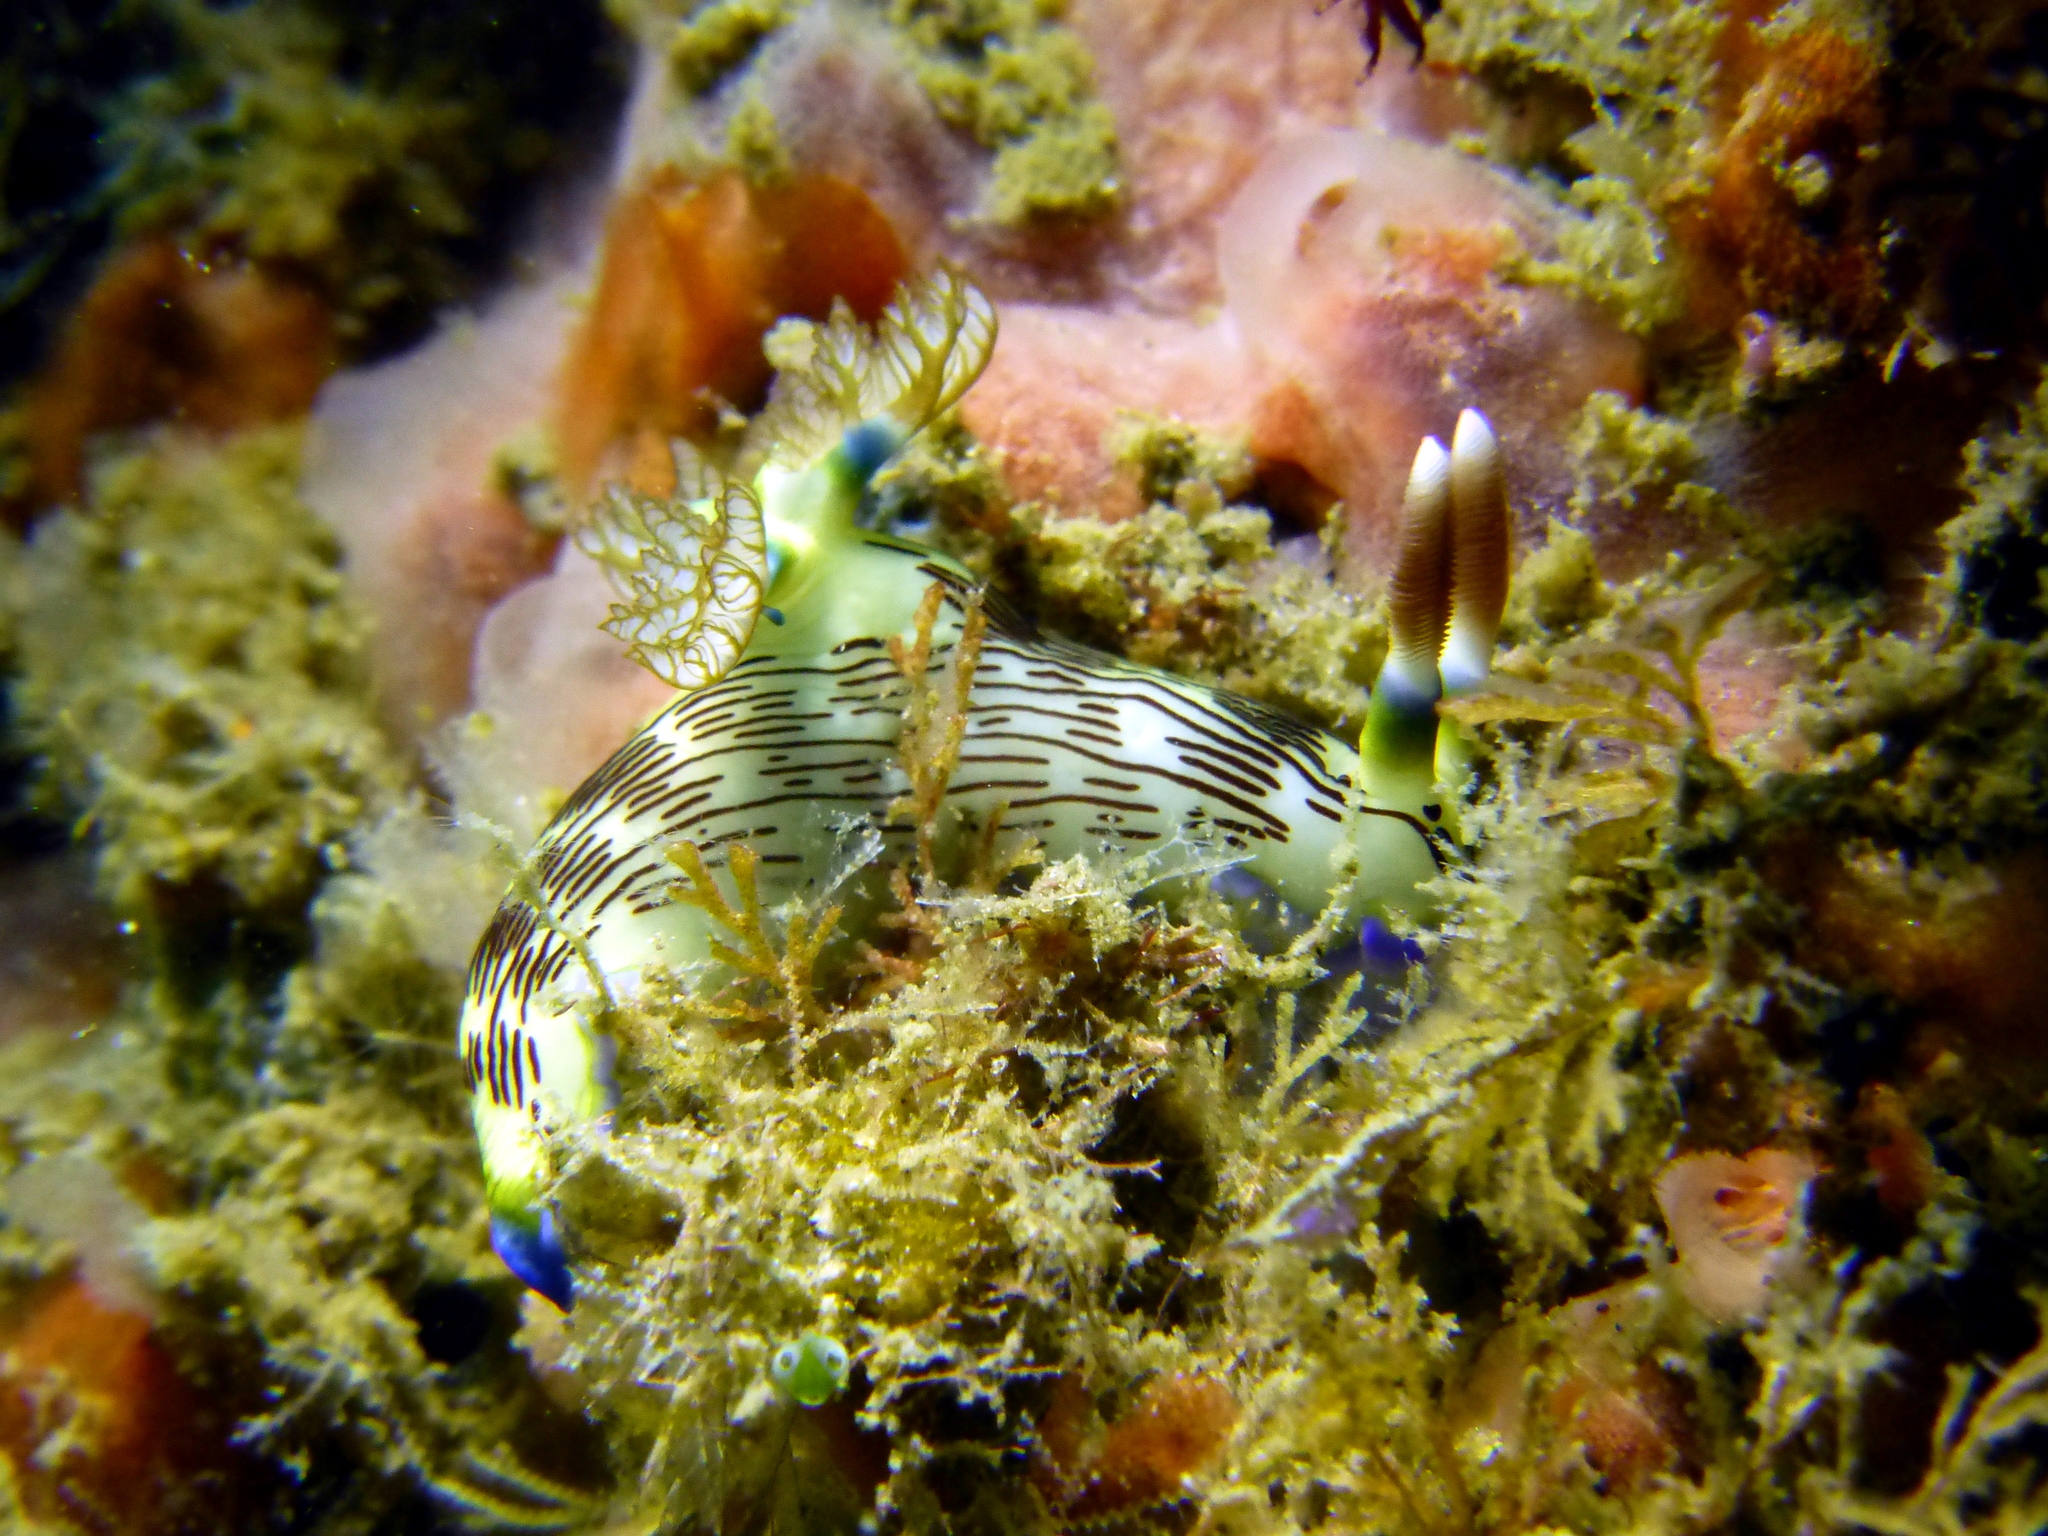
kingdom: Animalia
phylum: Mollusca
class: Gastropoda
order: Nudibranchia
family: Polyceridae
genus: Nembrotha
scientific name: Nembrotha lineolata
